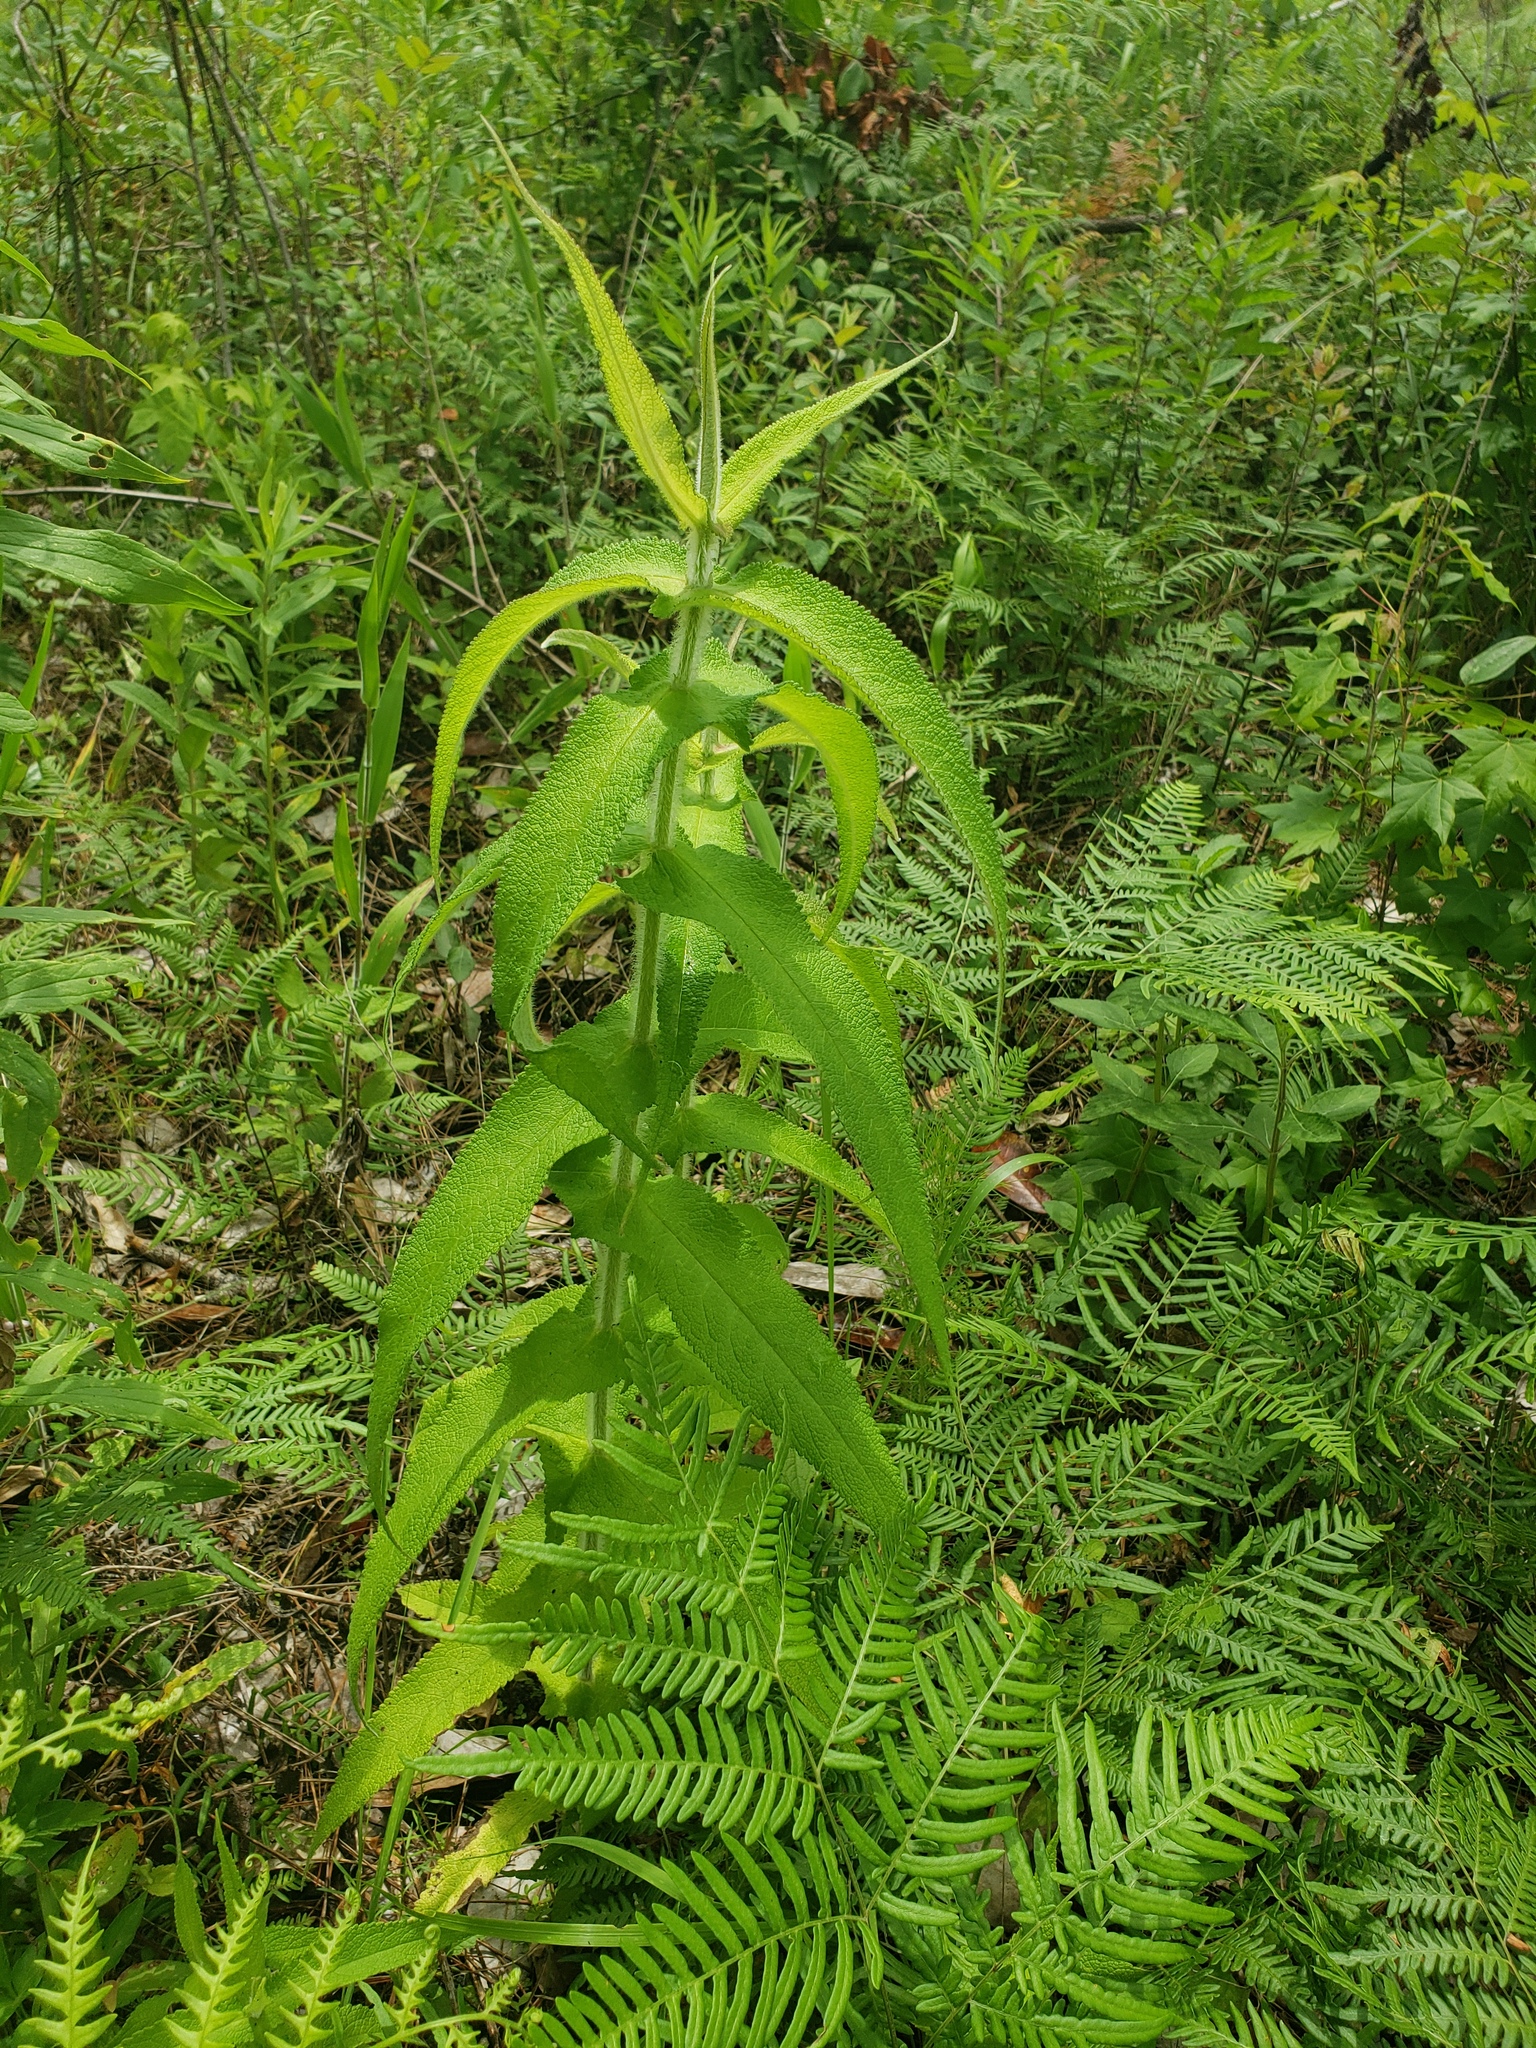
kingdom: Plantae
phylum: Tracheophyta
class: Magnoliopsida
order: Asterales
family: Asteraceae
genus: Eupatorium
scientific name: Eupatorium perfoliatum
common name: Boneset
